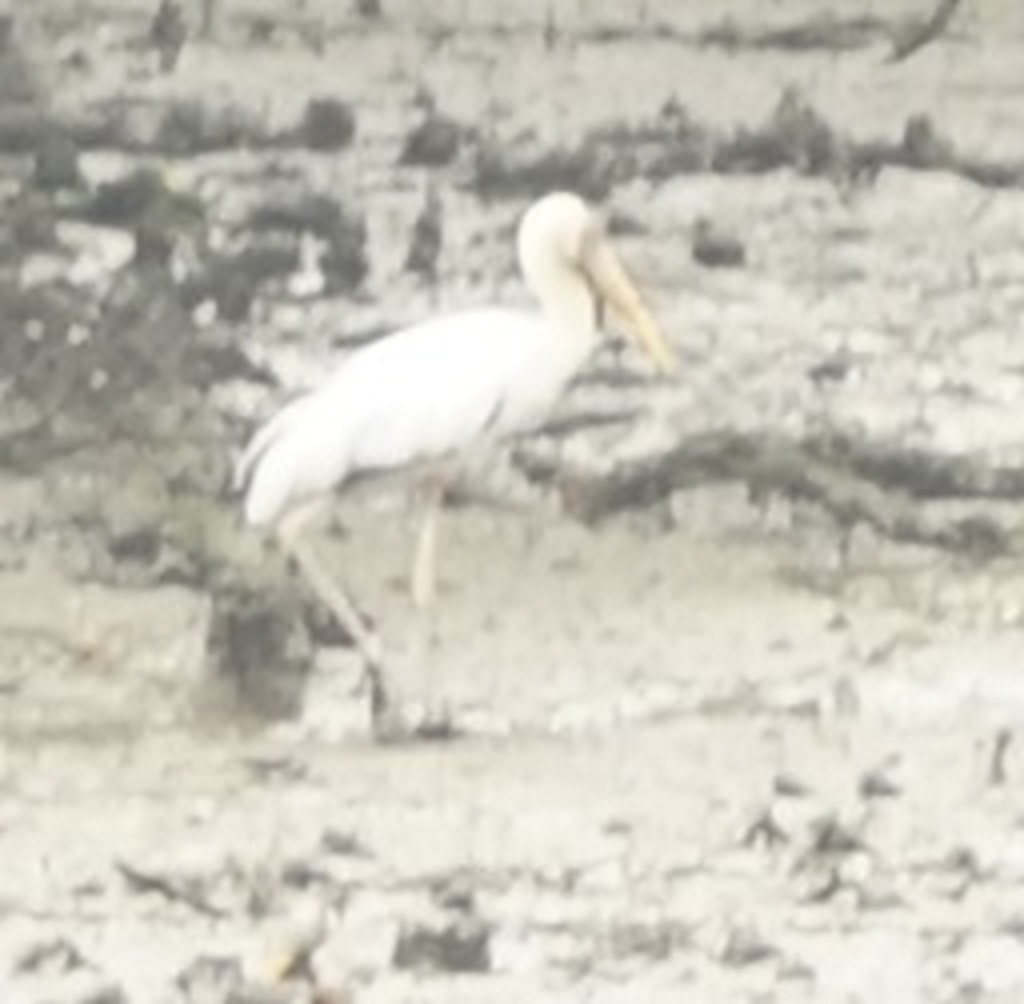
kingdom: Animalia
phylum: Chordata
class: Aves
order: Ciconiiformes
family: Ciconiidae
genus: Mycteria
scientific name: Mycteria cinerea
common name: Milky stork
